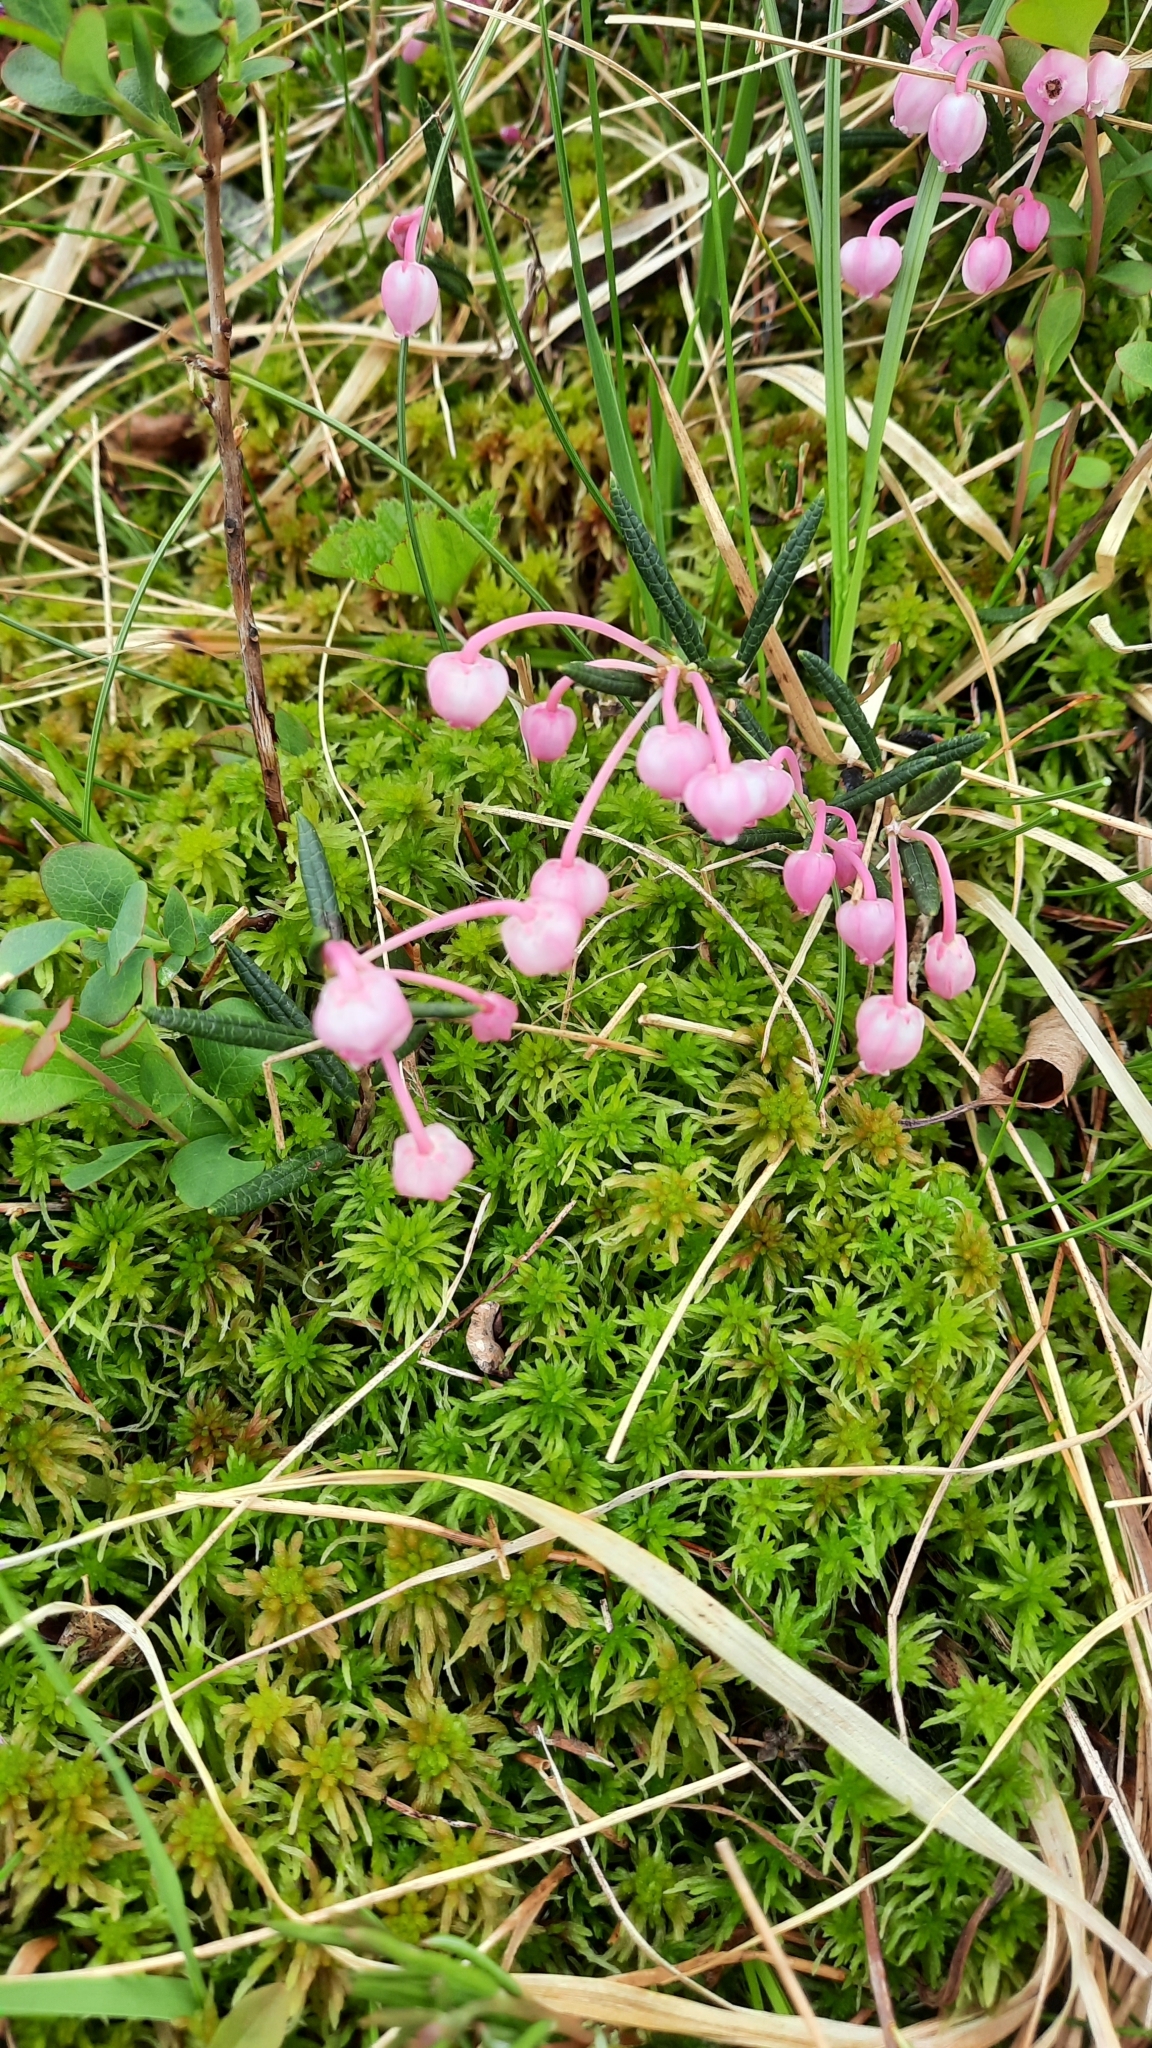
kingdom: Plantae
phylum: Tracheophyta
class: Magnoliopsida
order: Ericales
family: Ericaceae
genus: Andromeda
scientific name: Andromeda polifolia
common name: Bog-rosemary
